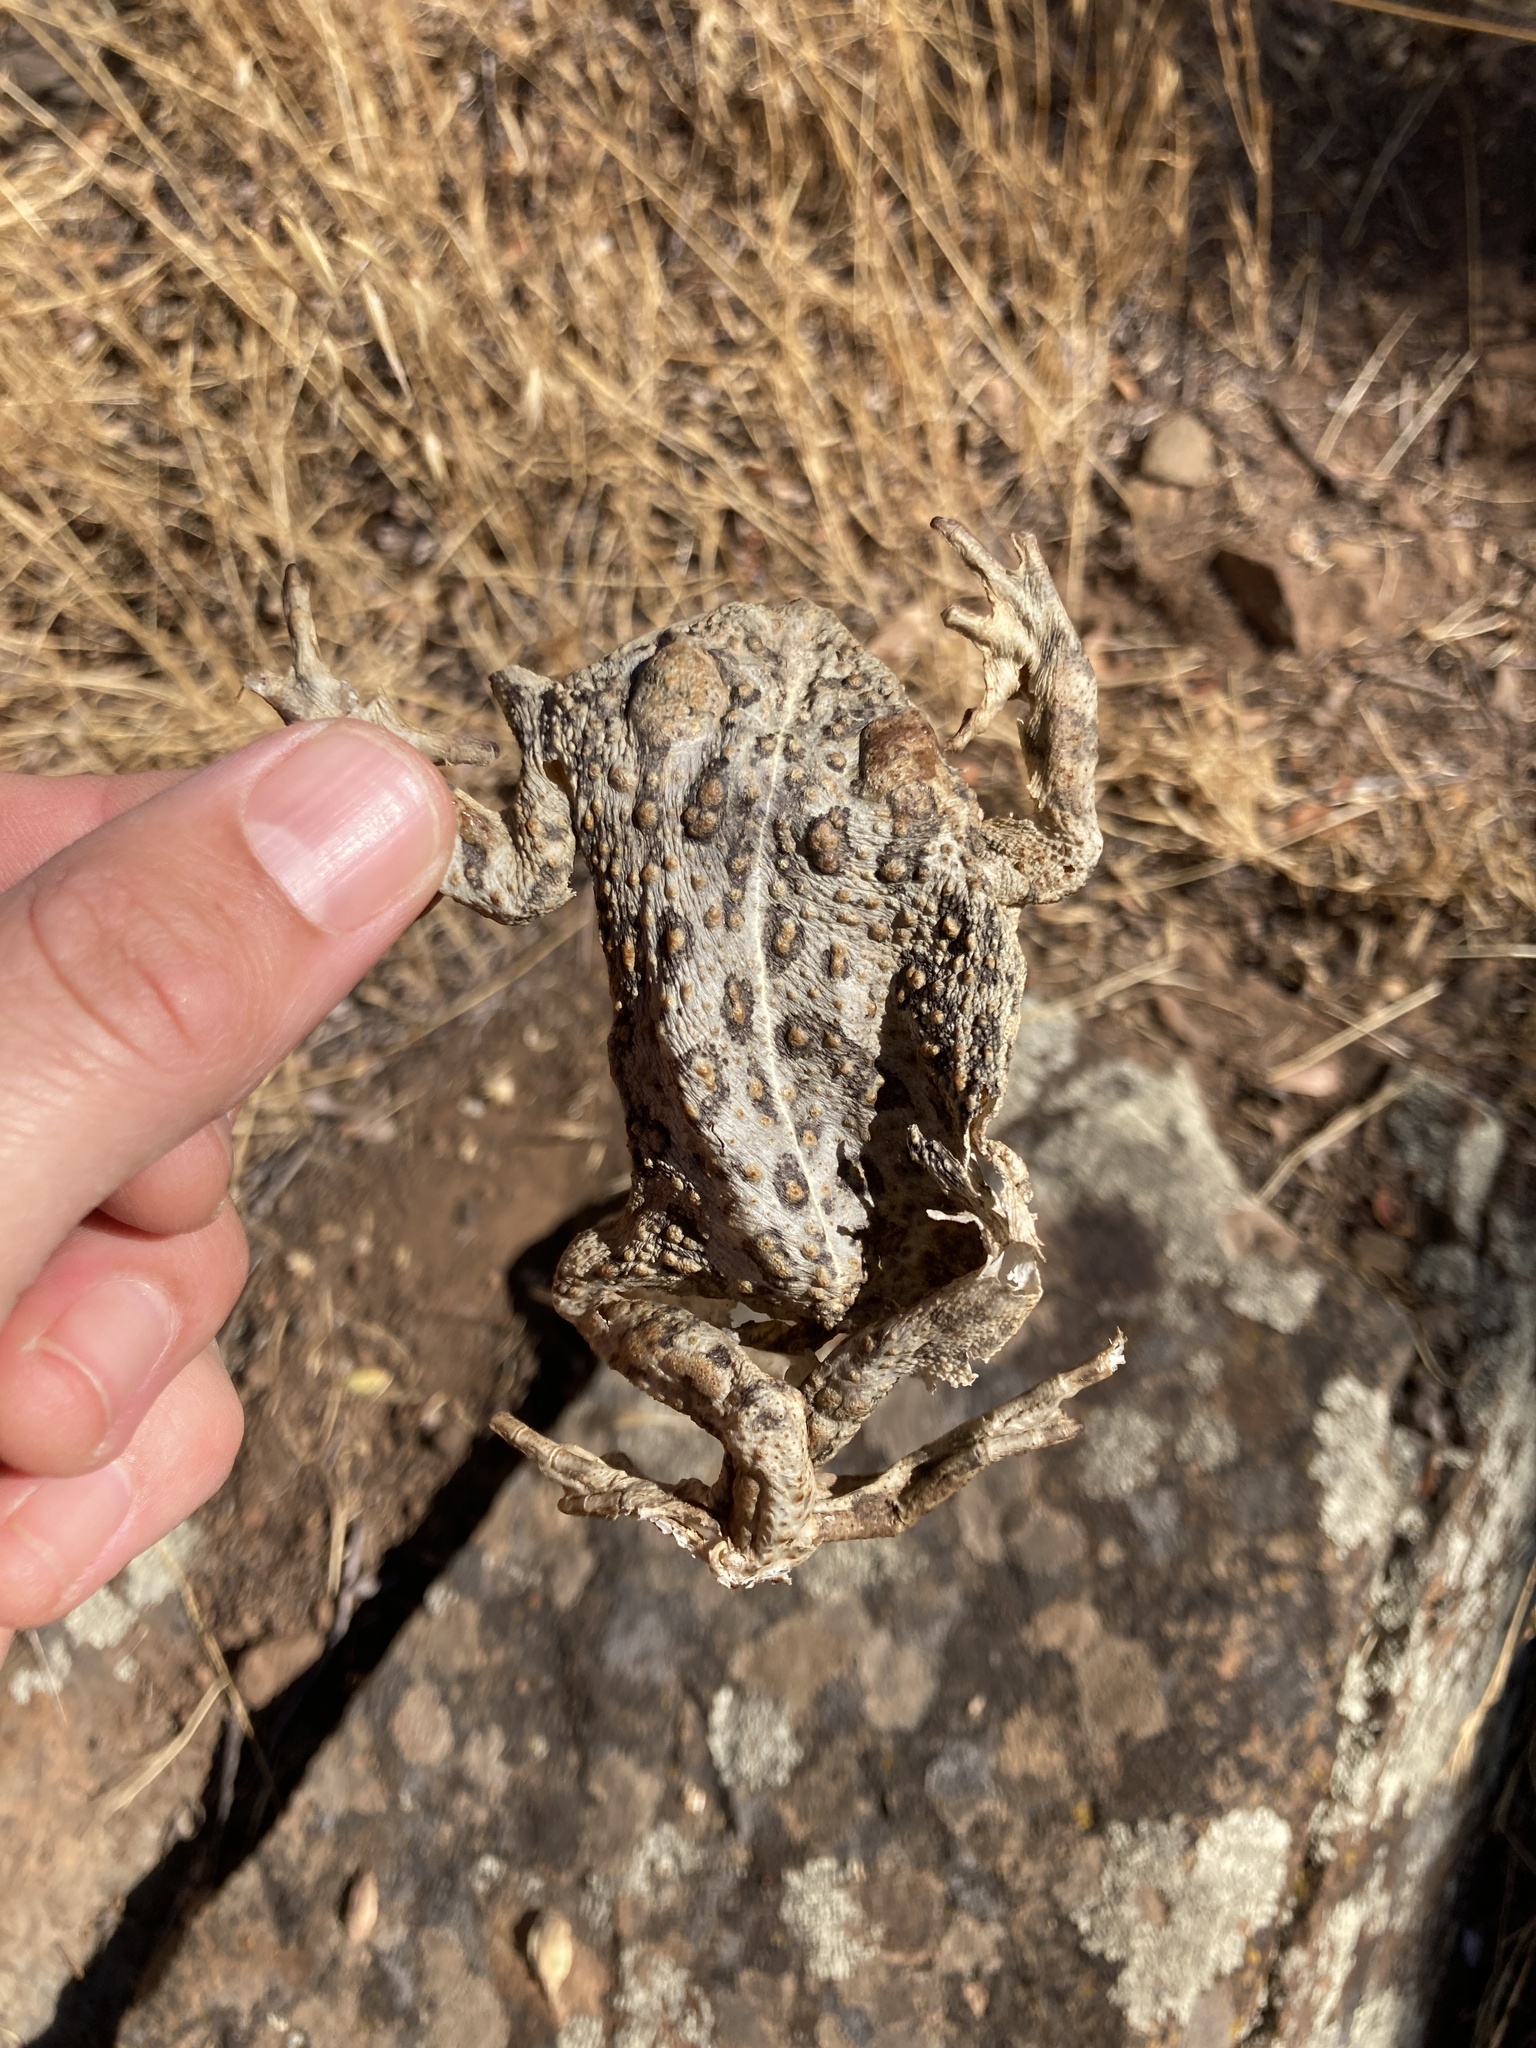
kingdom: Animalia
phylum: Chordata
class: Amphibia
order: Anura
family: Bufonidae
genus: Anaxyrus
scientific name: Anaxyrus boreas
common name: Western toad
